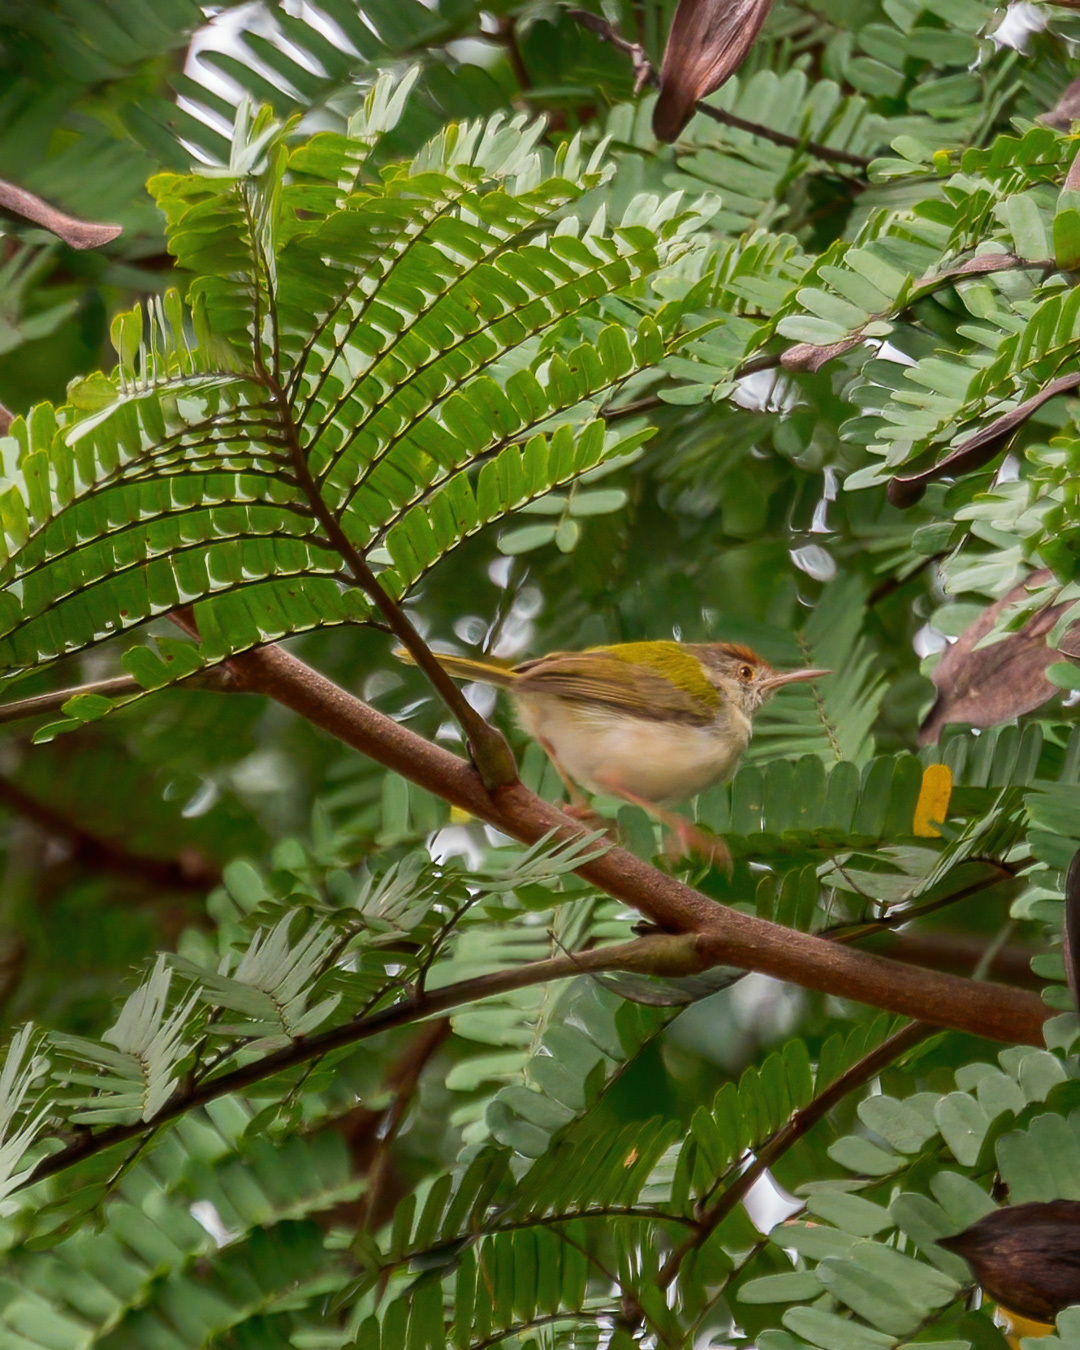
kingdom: Animalia
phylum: Chordata
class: Aves
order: Passeriformes
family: Cisticolidae
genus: Orthotomus
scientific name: Orthotomus sutorius
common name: Common tailorbird
